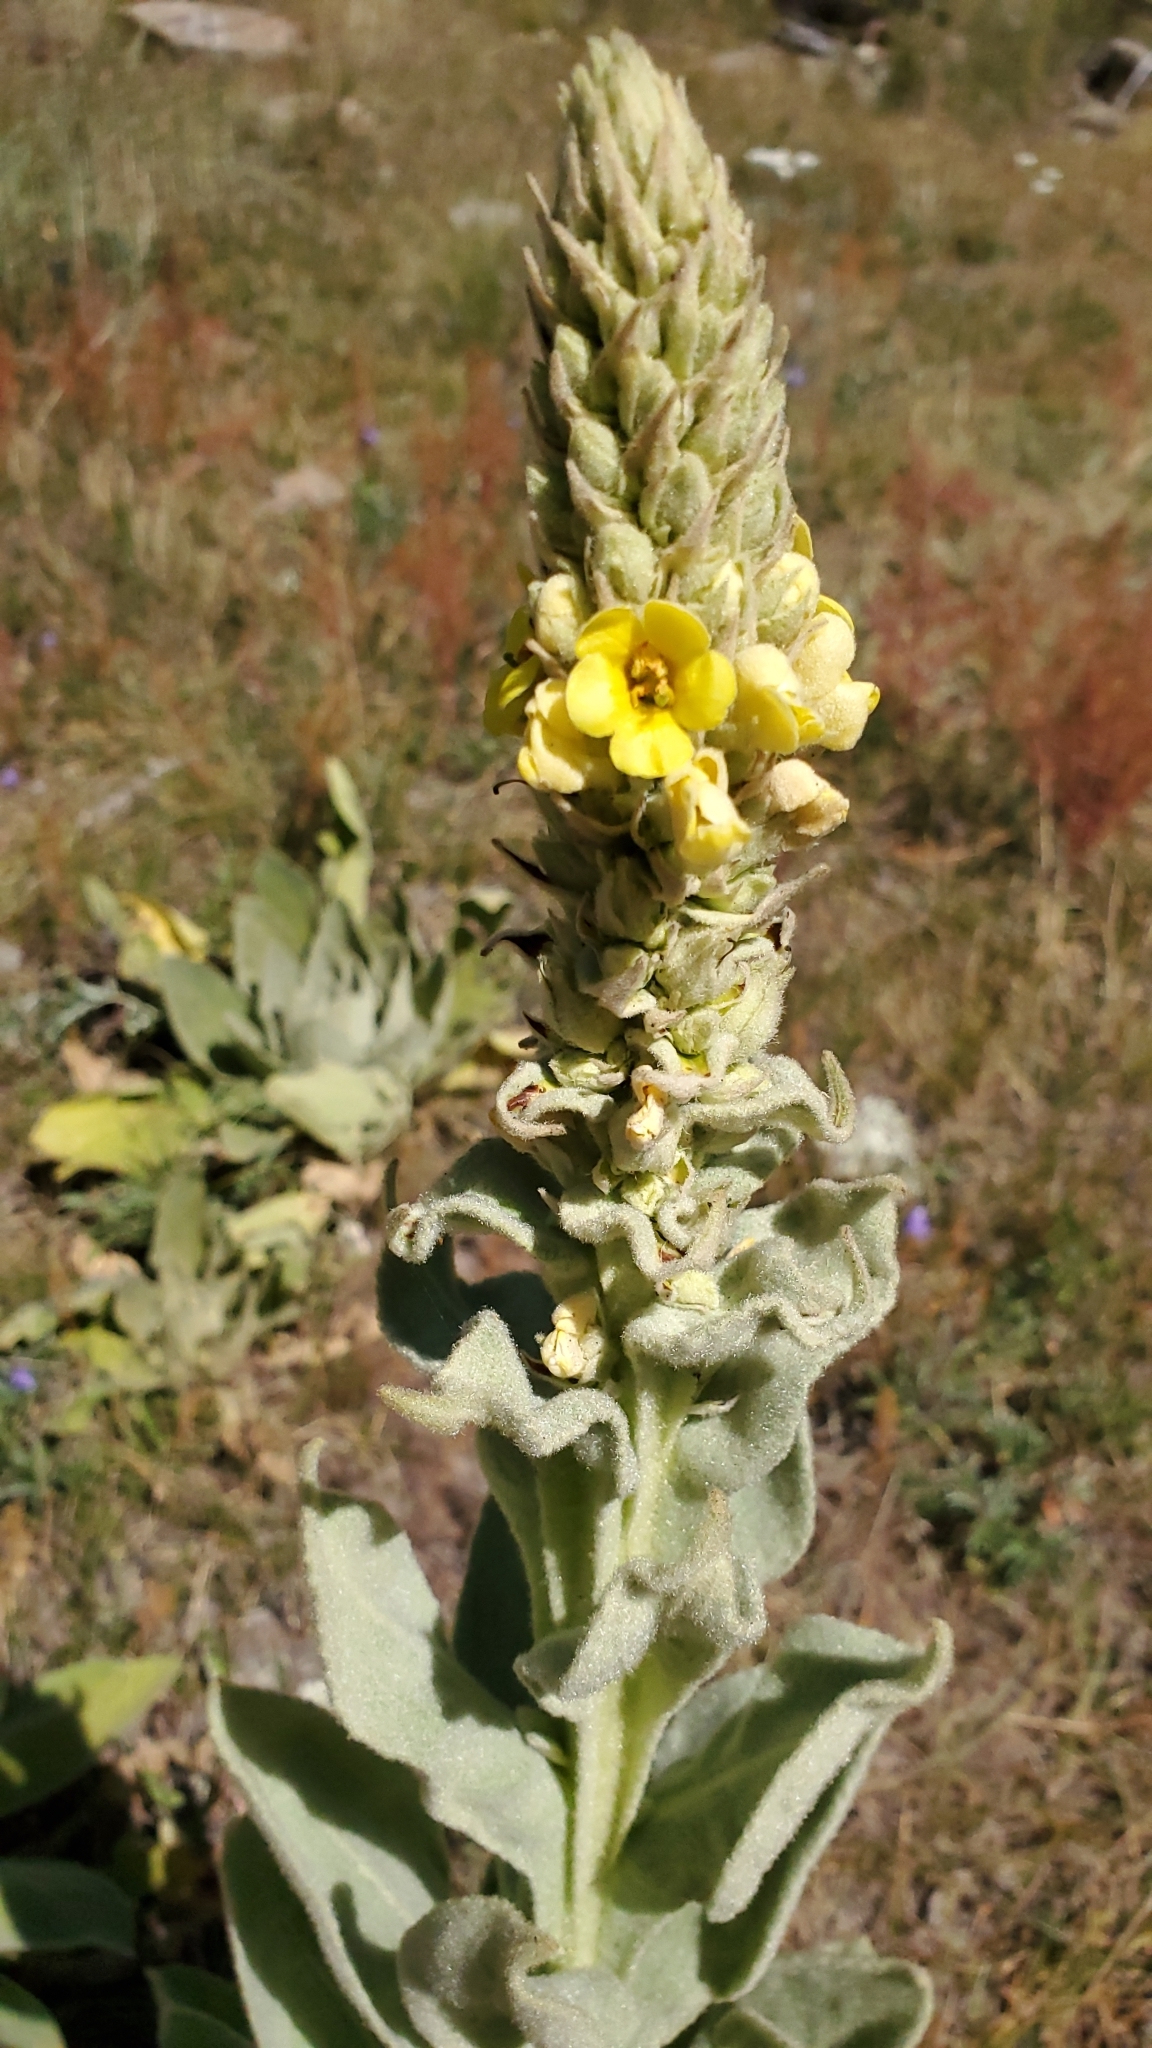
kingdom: Plantae
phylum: Tracheophyta
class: Magnoliopsida
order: Lamiales
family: Scrophulariaceae
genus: Verbascum
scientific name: Verbascum thapsus
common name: Common mullein
